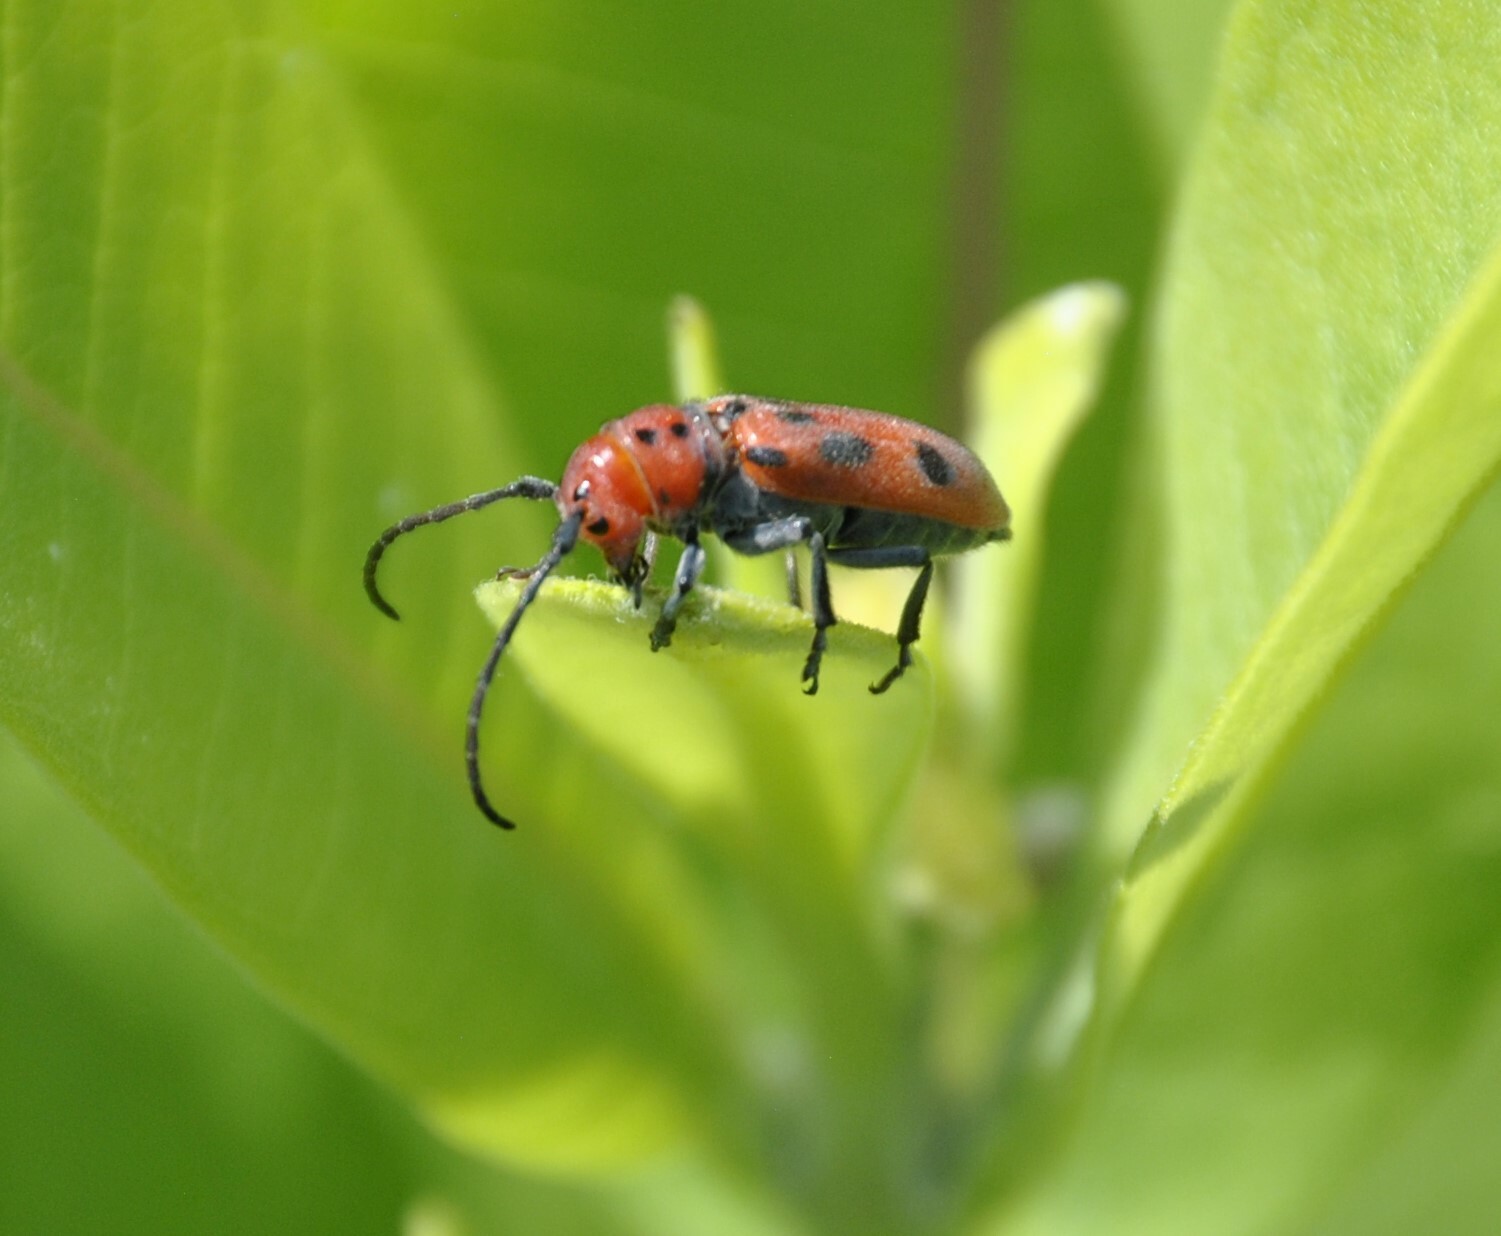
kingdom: Animalia
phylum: Arthropoda
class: Insecta
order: Coleoptera
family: Cerambycidae
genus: Tetraopes
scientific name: Tetraopes tetrophthalmus
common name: Red milkweed beetle
